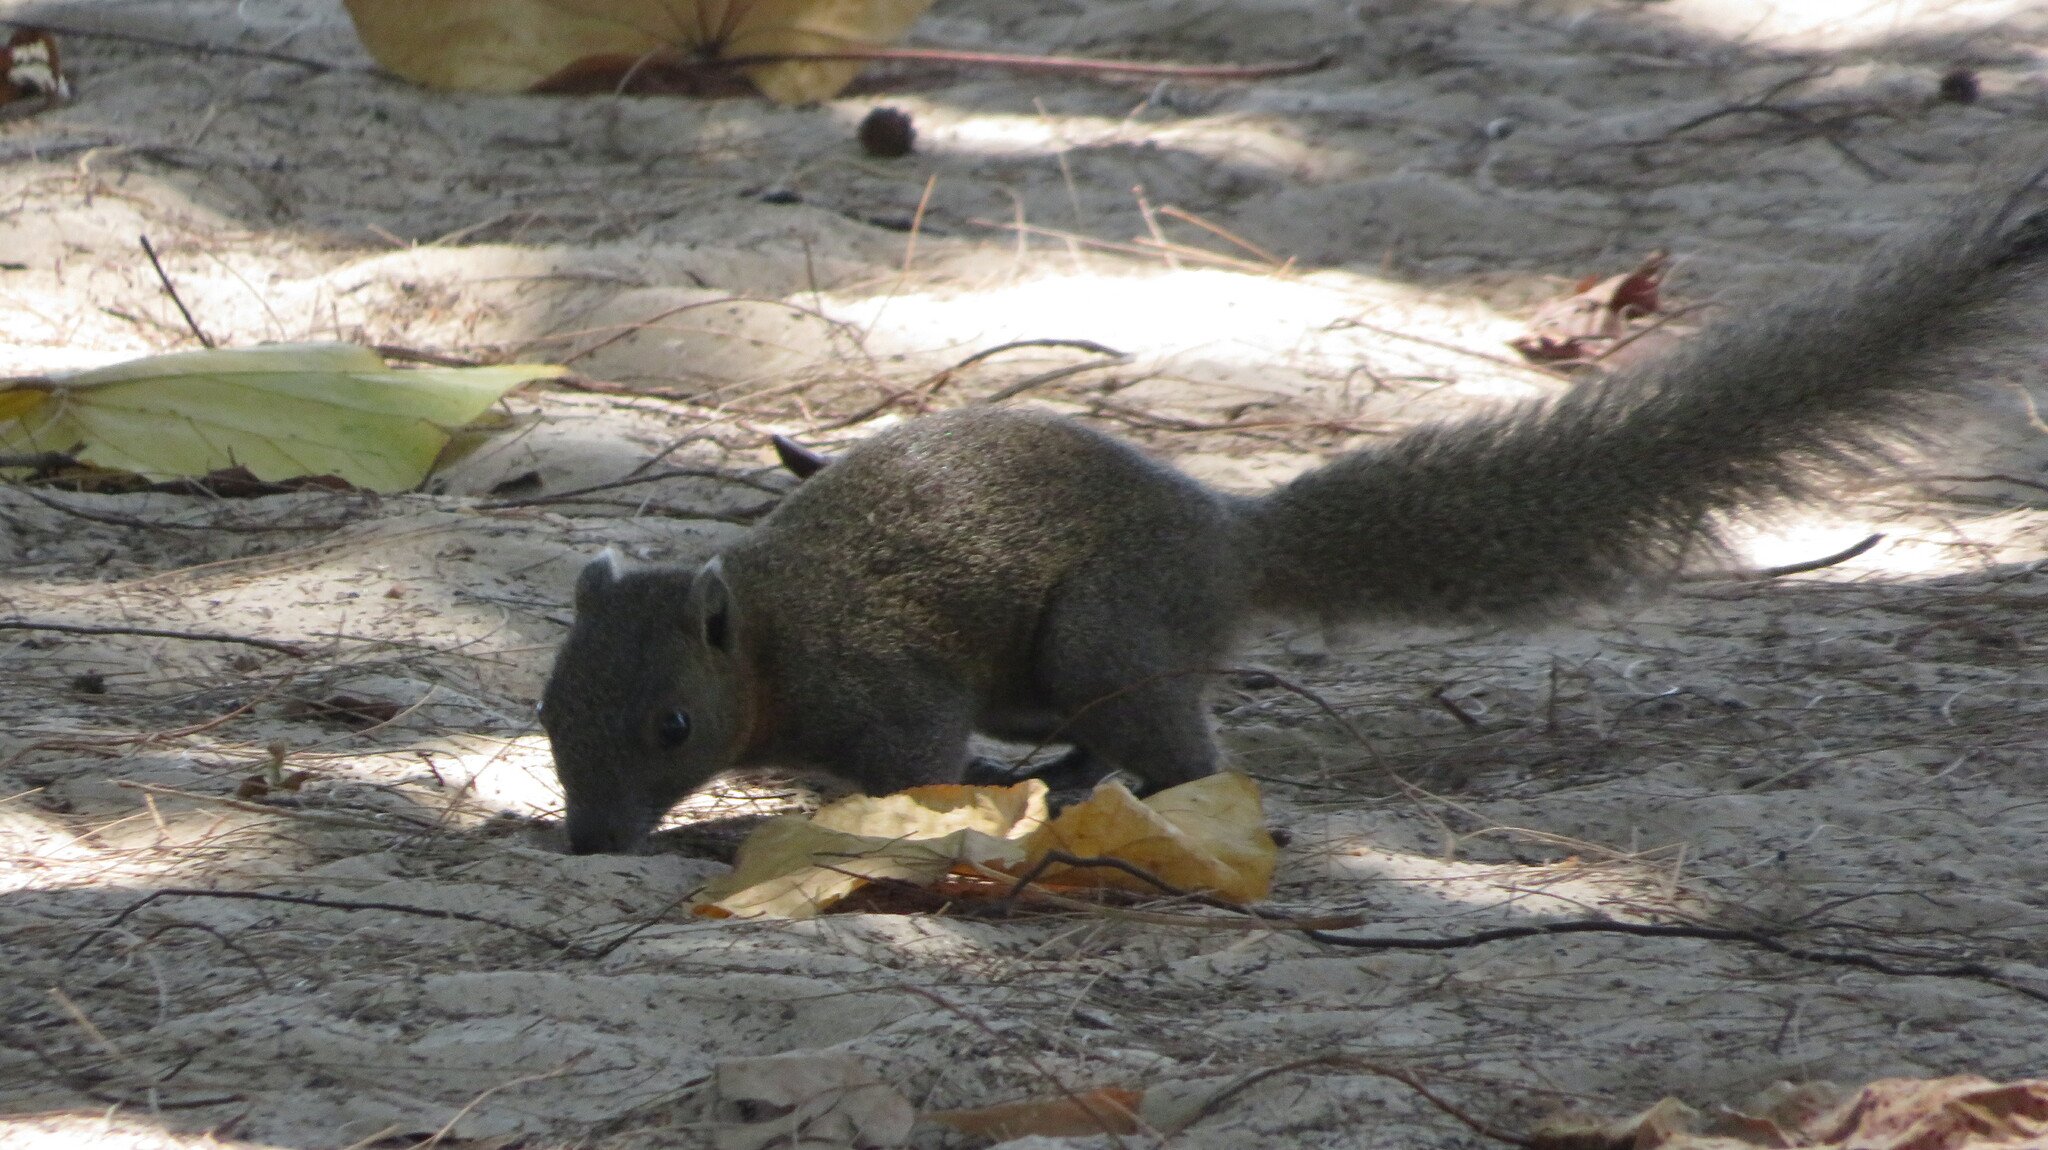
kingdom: Animalia
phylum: Chordata
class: Mammalia
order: Rodentia
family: Sciuridae
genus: Callosciurus
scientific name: Callosciurus erythraeus
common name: Pallas's squirrel
